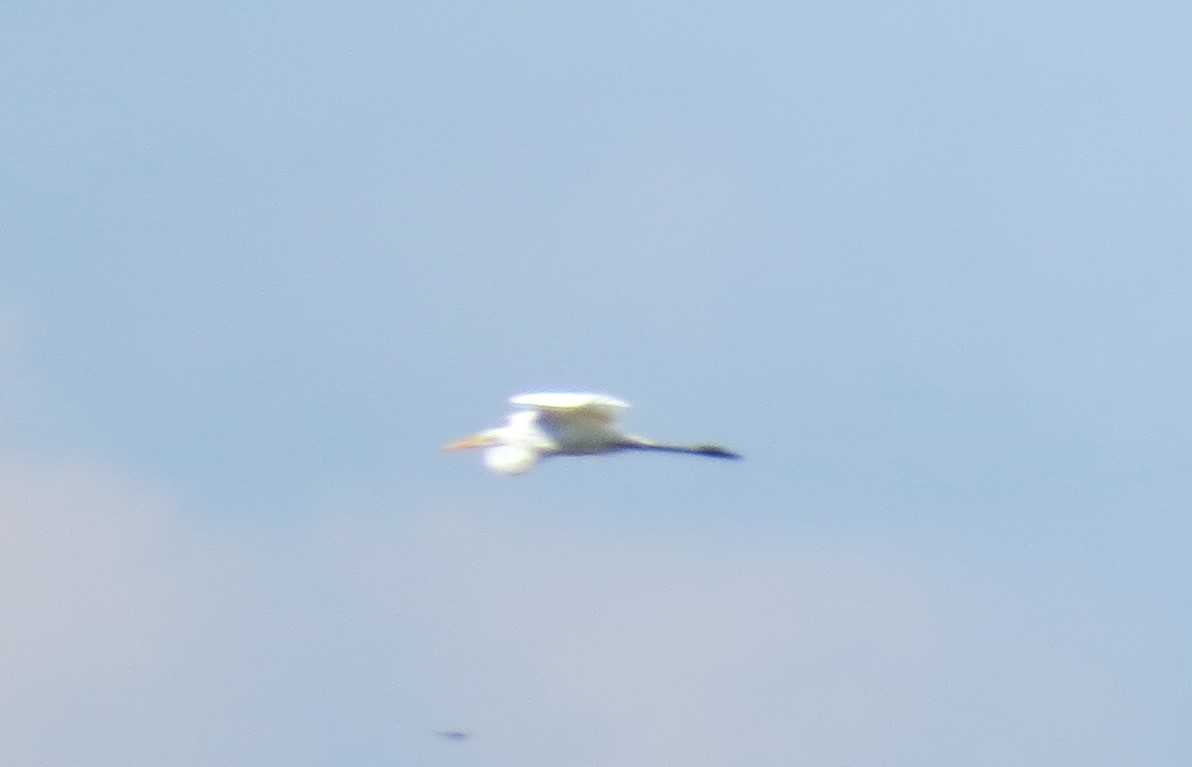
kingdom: Animalia
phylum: Chordata
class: Aves
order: Pelecaniformes
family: Ardeidae
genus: Ardea
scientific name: Ardea alba
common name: Great egret
